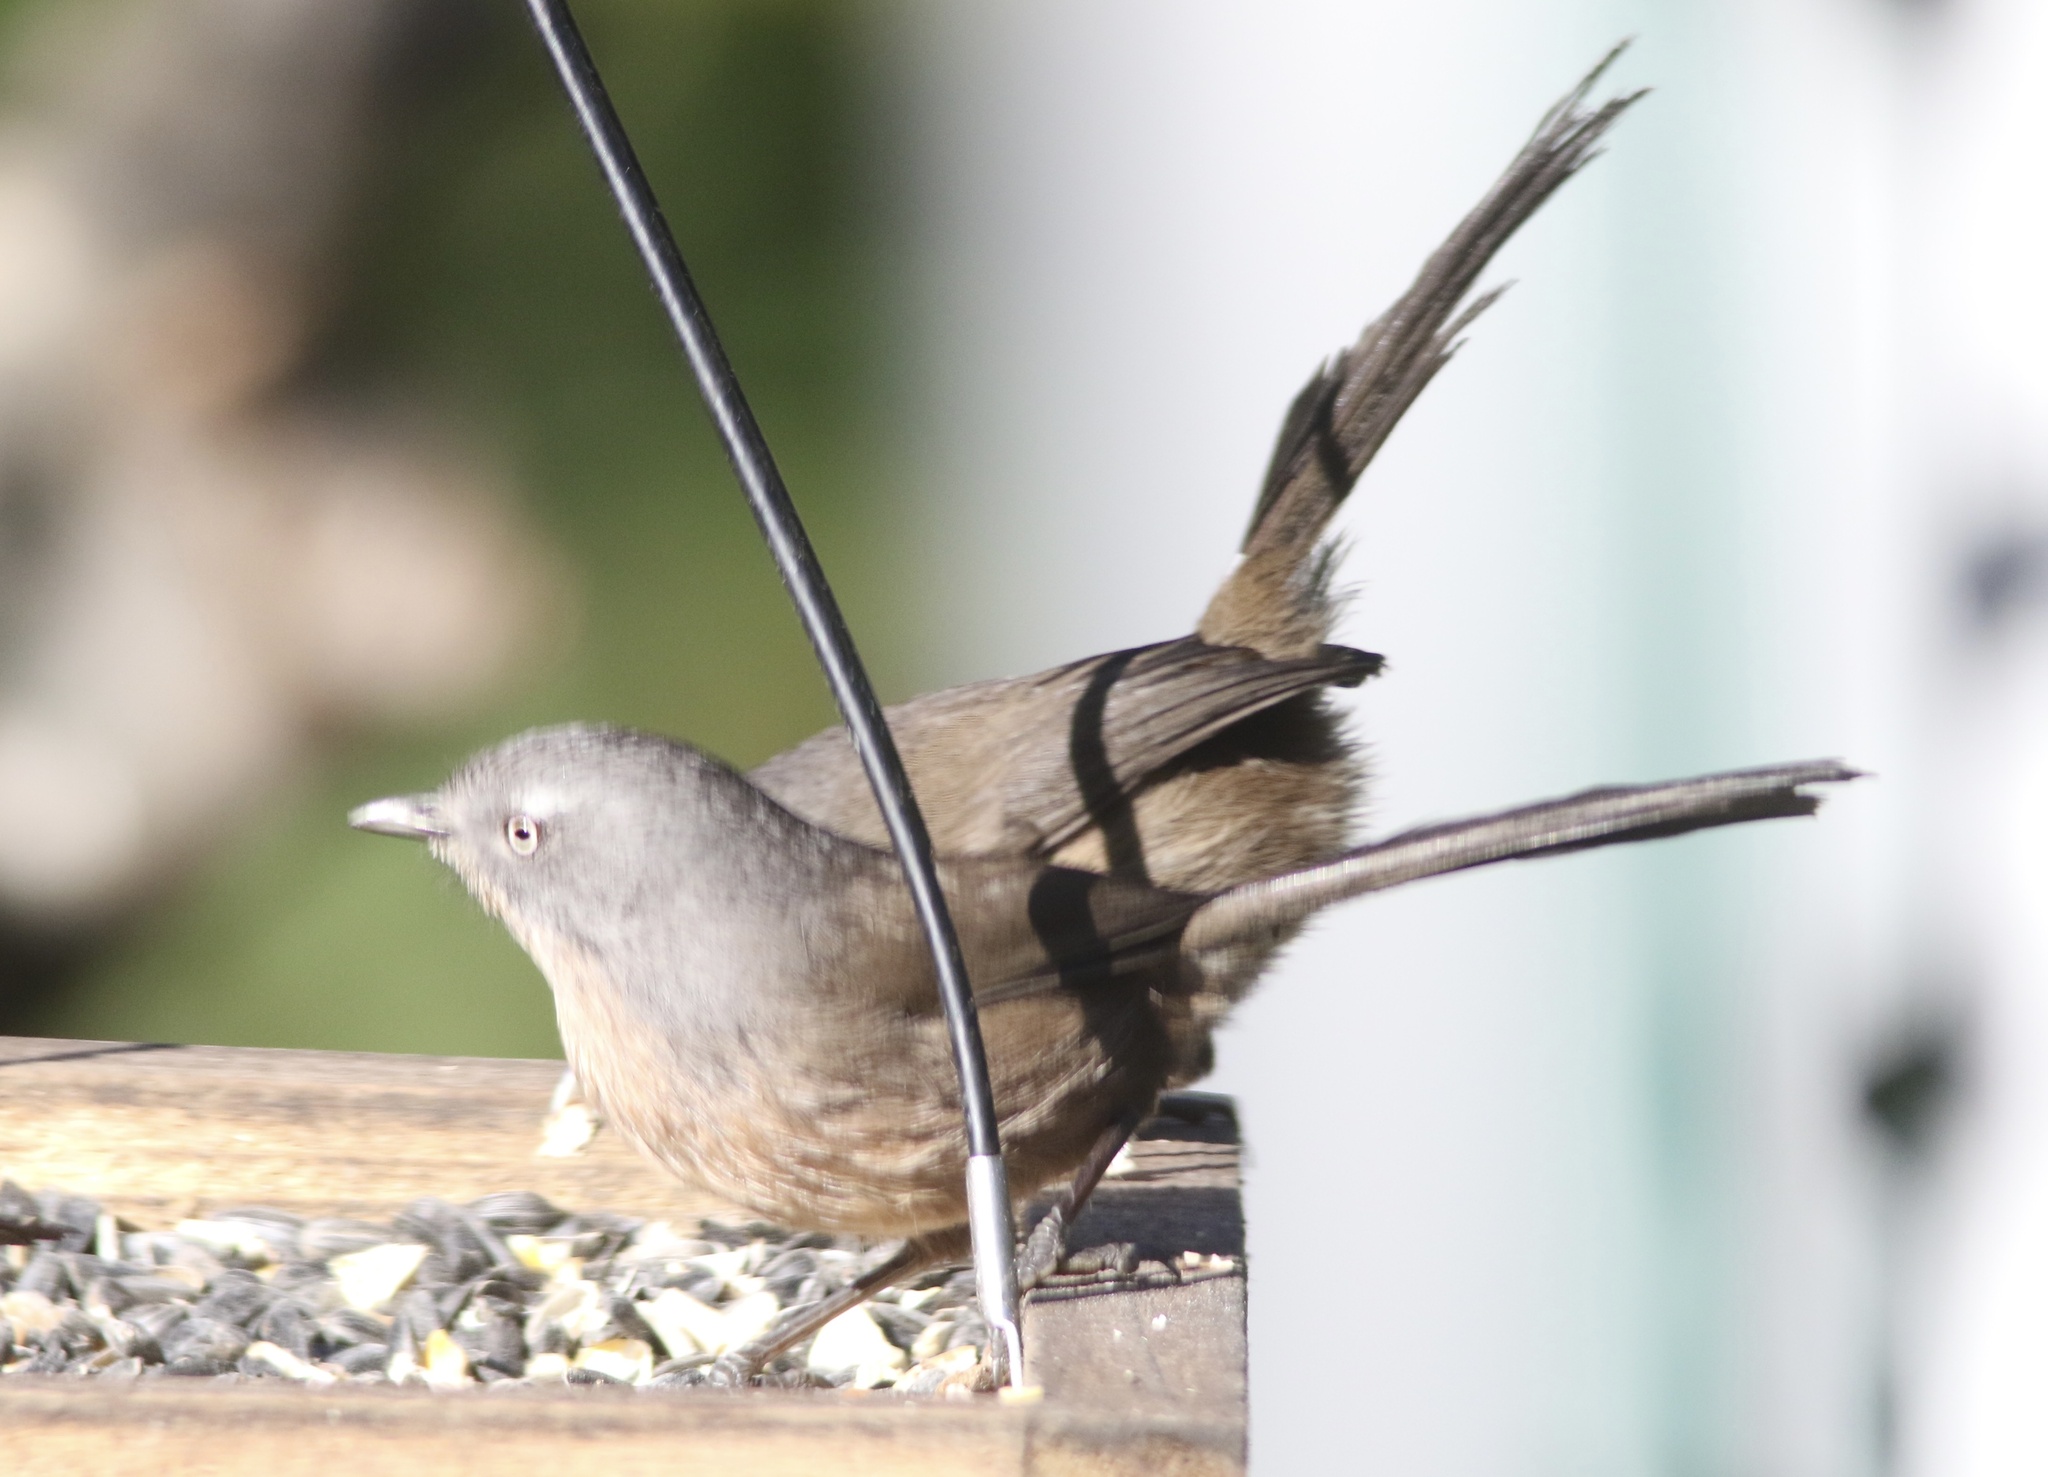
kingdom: Animalia
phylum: Chordata
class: Aves
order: Passeriformes
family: Sylviidae
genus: Chamaea
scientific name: Chamaea fasciata
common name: Wrentit
